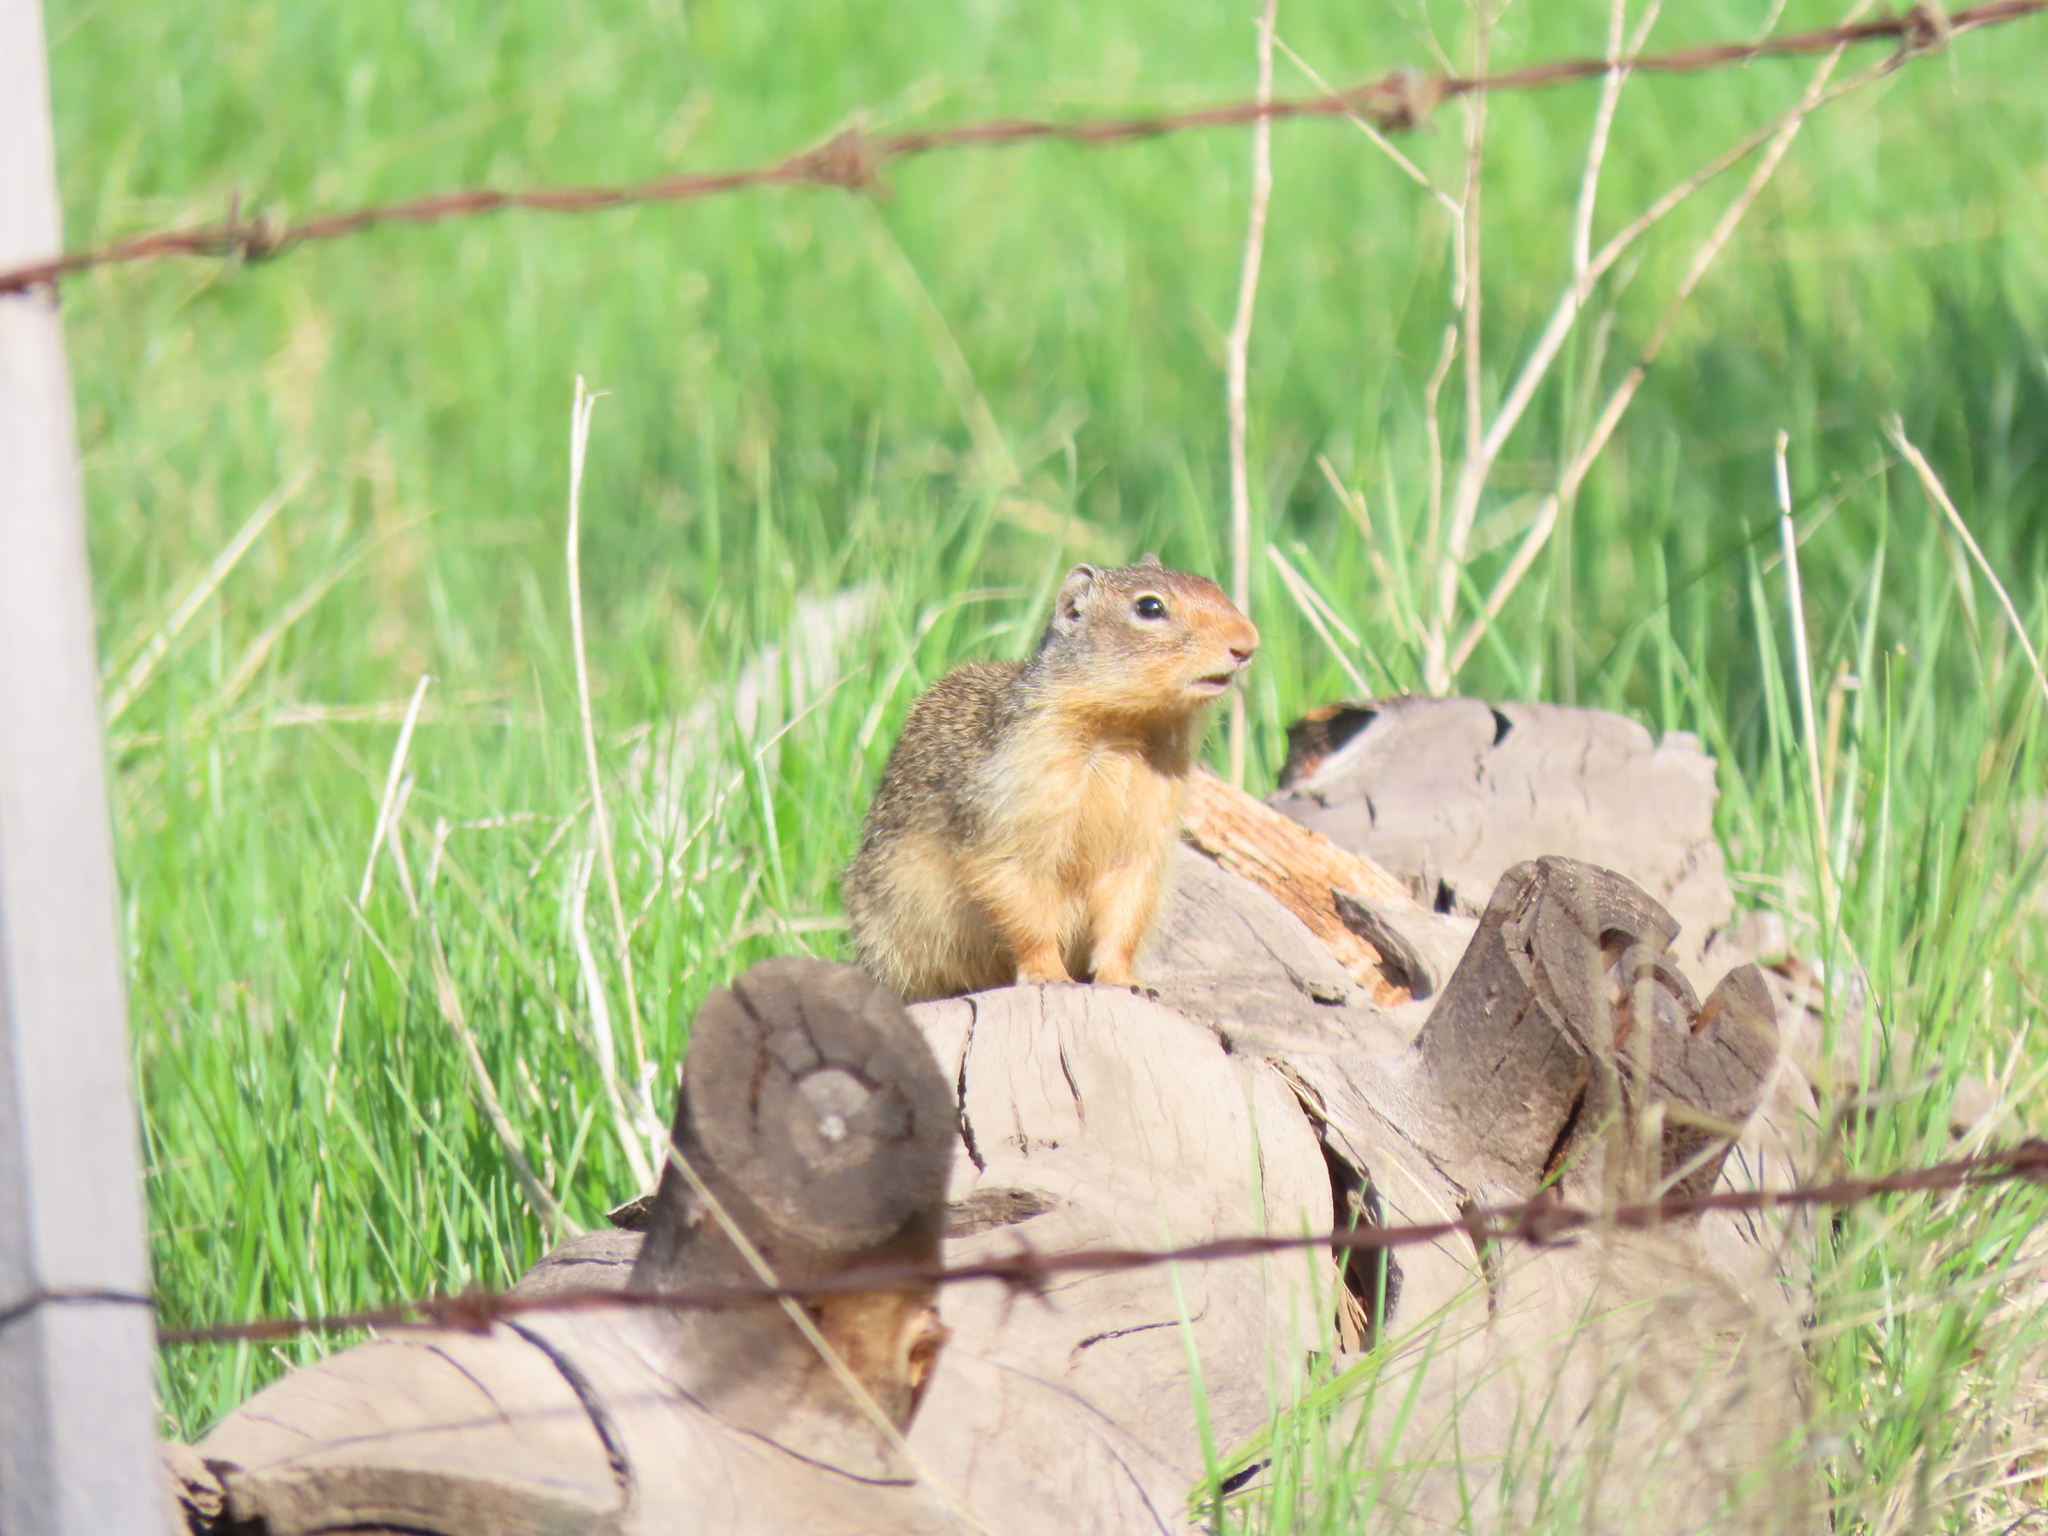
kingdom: Animalia
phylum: Chordata
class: Mammalia
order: Rodentia
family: Sciuridae
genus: Urocitellus
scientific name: Urocitellus columbianus
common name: Columbian ground squirrel
